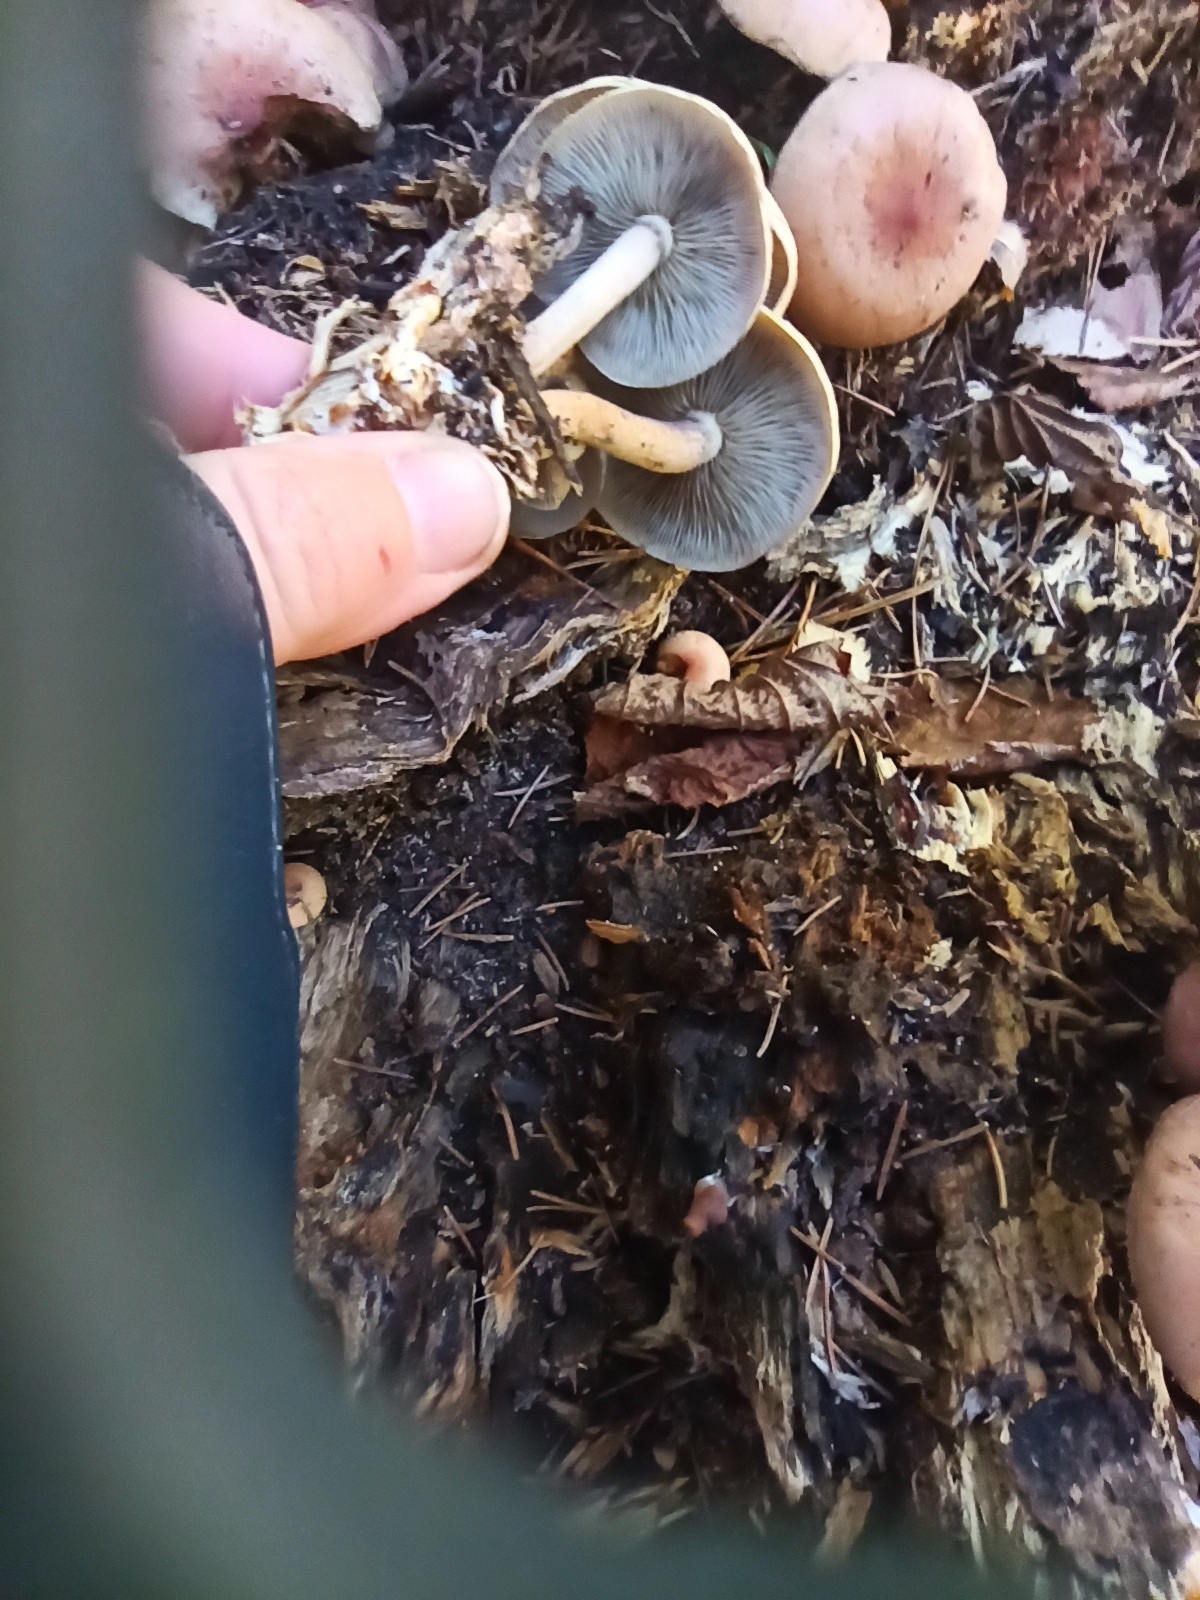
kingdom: Fungi
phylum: Basidiomycota
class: Agaricomycetes
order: Agaricales
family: Strophariaceae
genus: Hypholoma
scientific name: Hypholoma lateritium
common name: Brick caps
